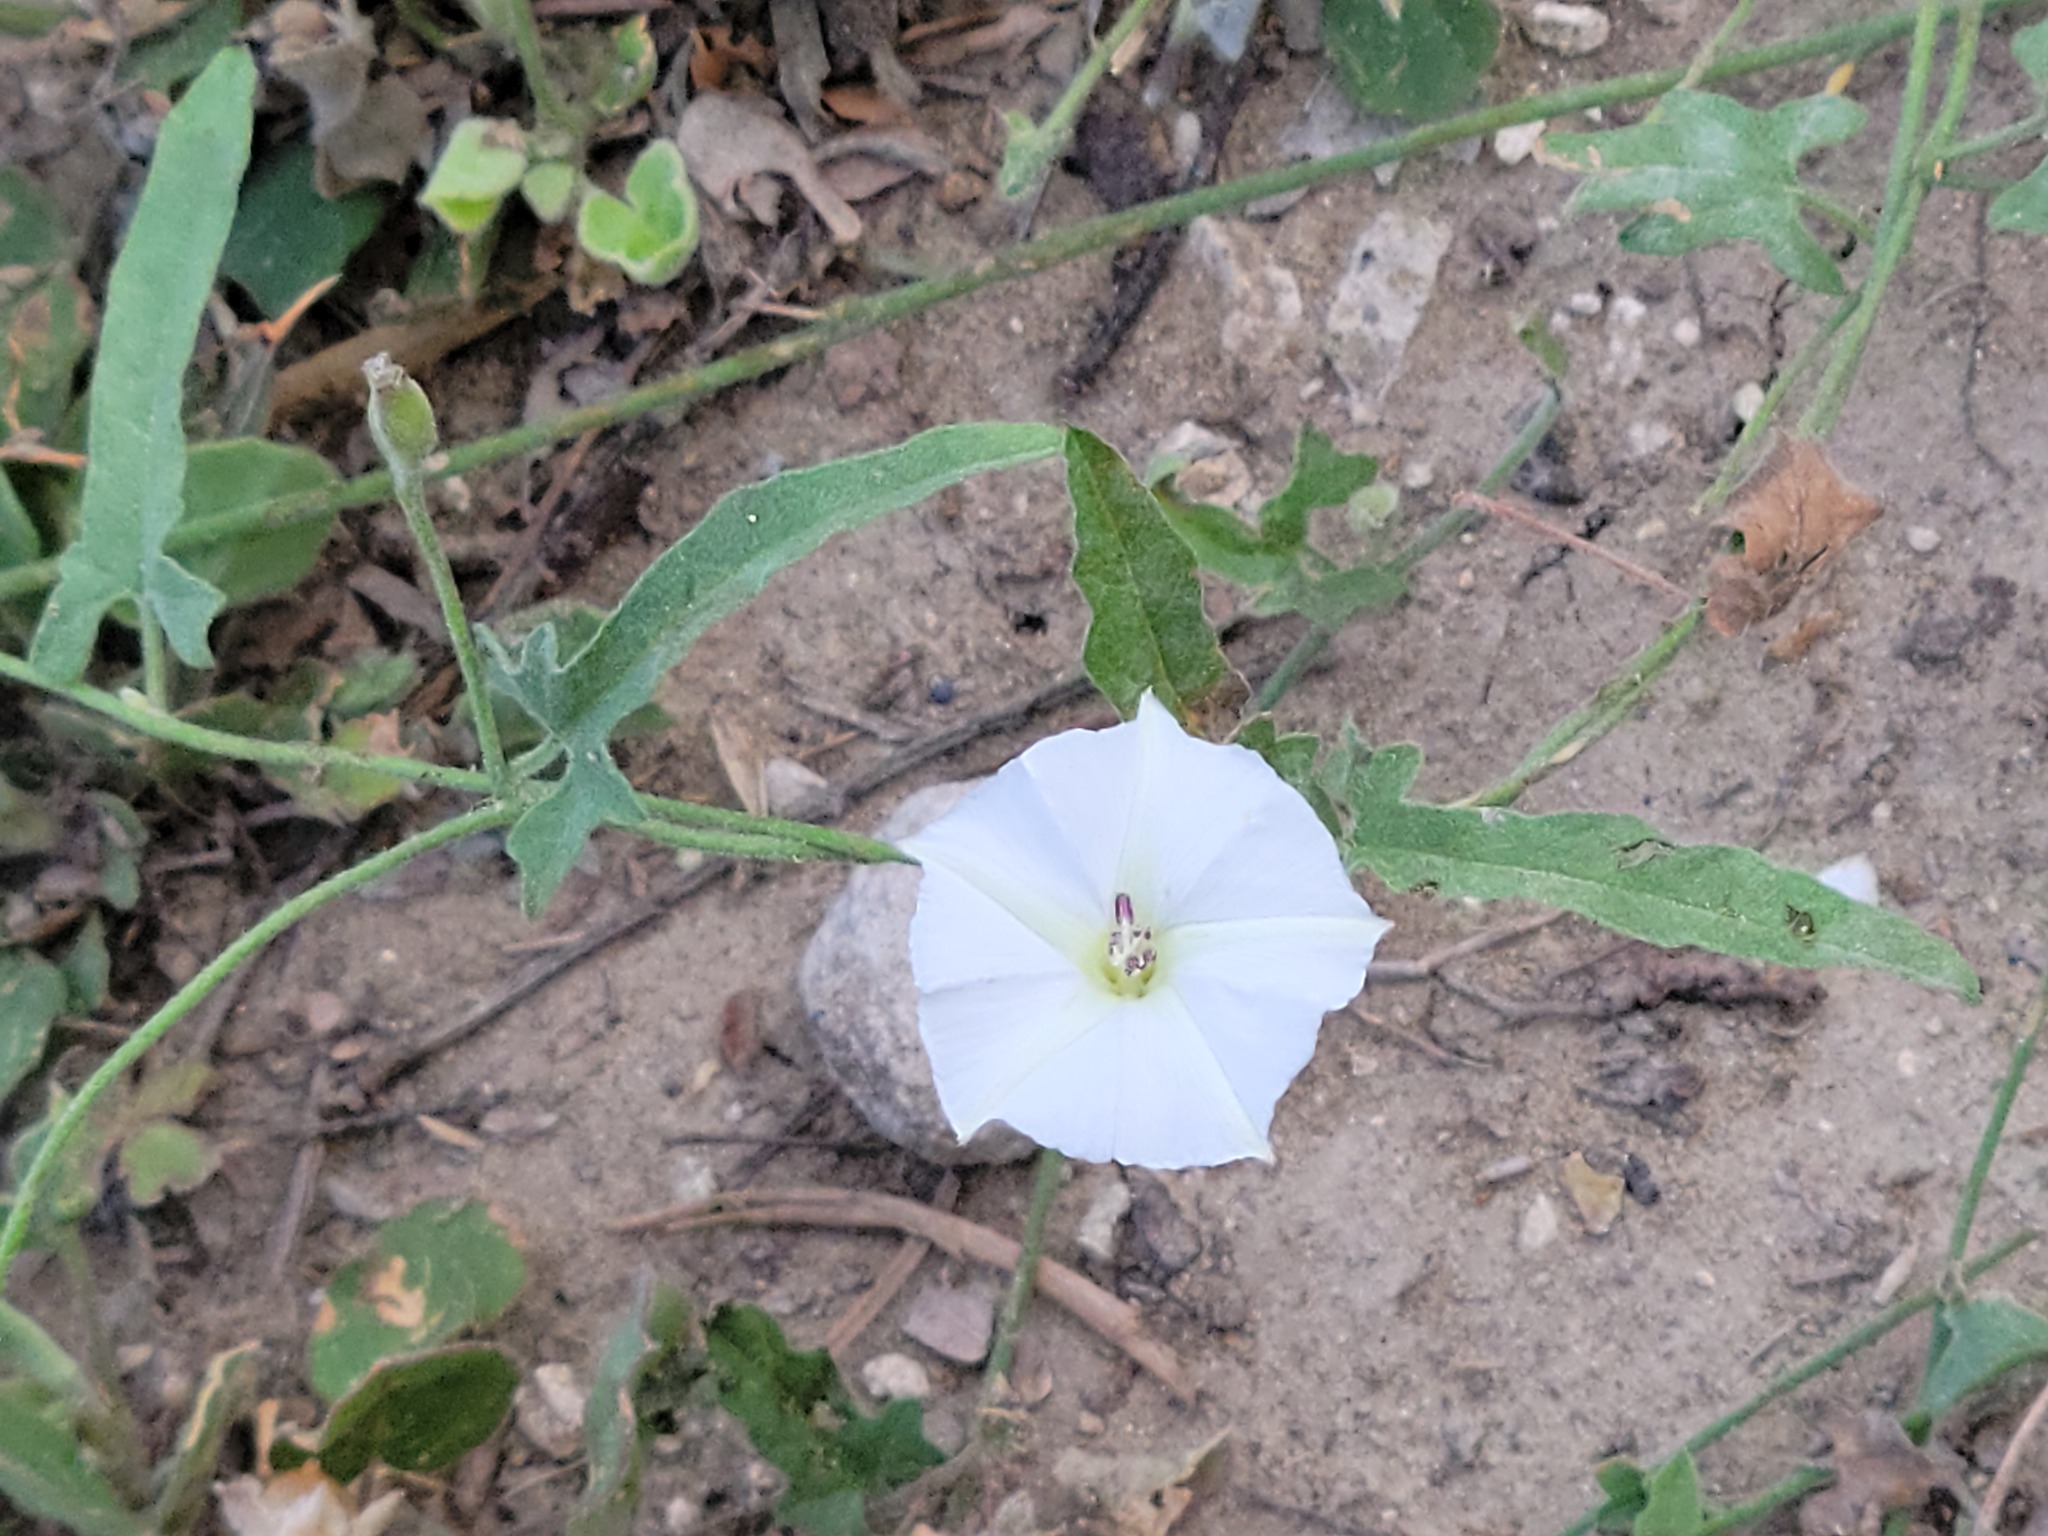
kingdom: Plantae
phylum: Tracheophyta
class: Magnoliopsida
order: Solanales
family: Convolvulaceae
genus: Convolvulus
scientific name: Convolvulus equitans
